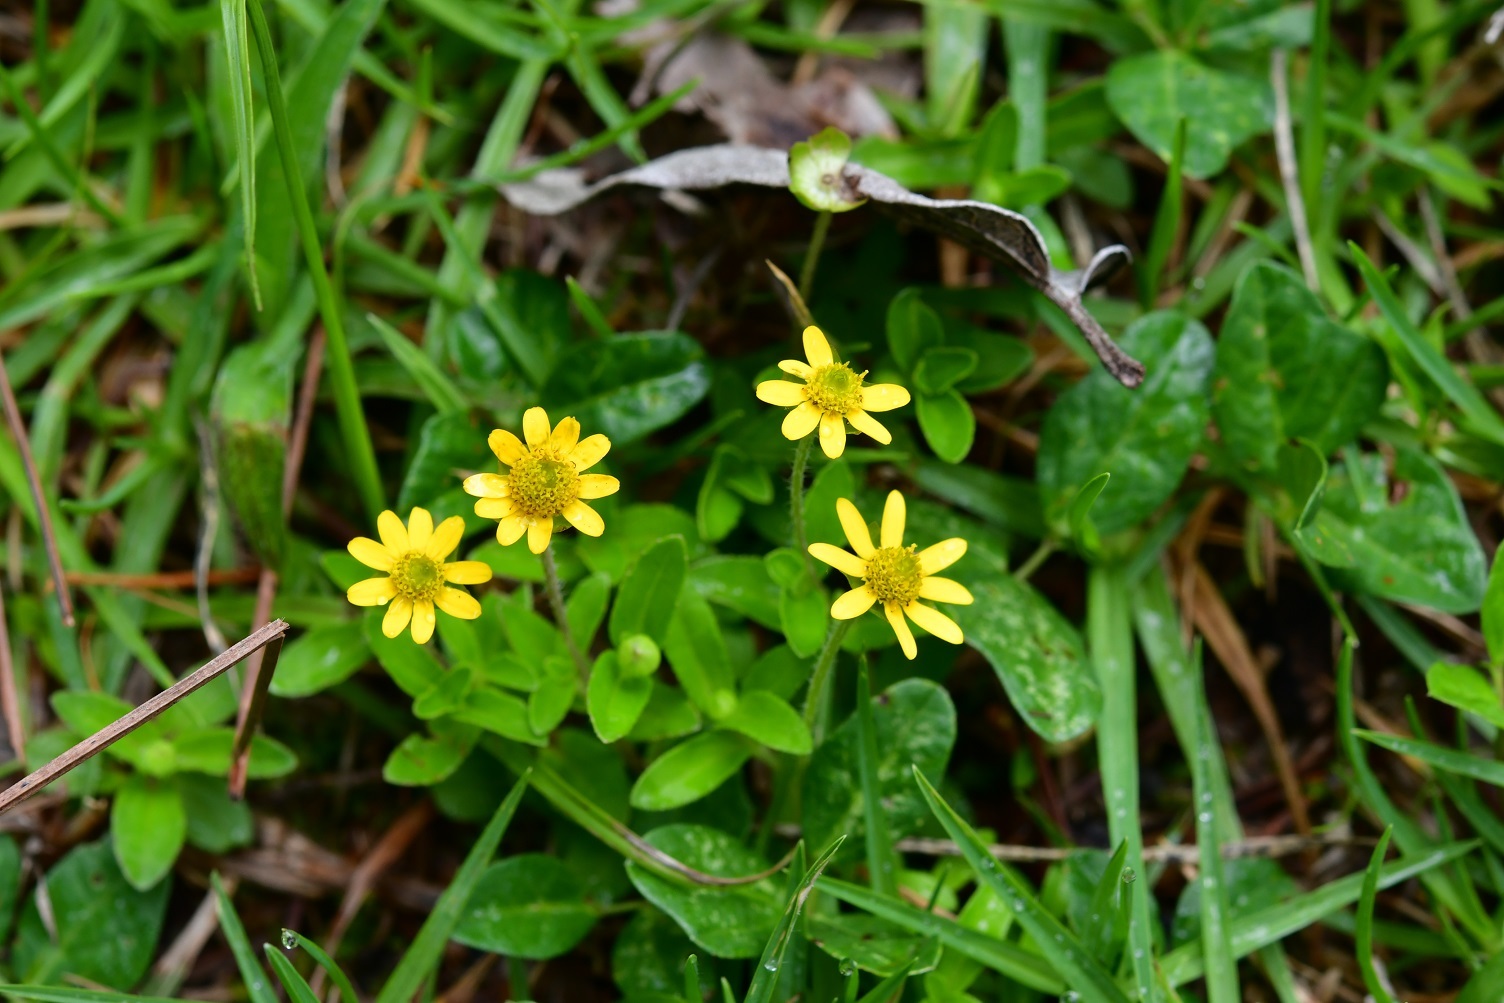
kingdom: Plantae
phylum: Tracheophyta
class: Magnoliopsida
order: Asterales
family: Asteraceae
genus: Melampodium
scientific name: Melampodium montanum
